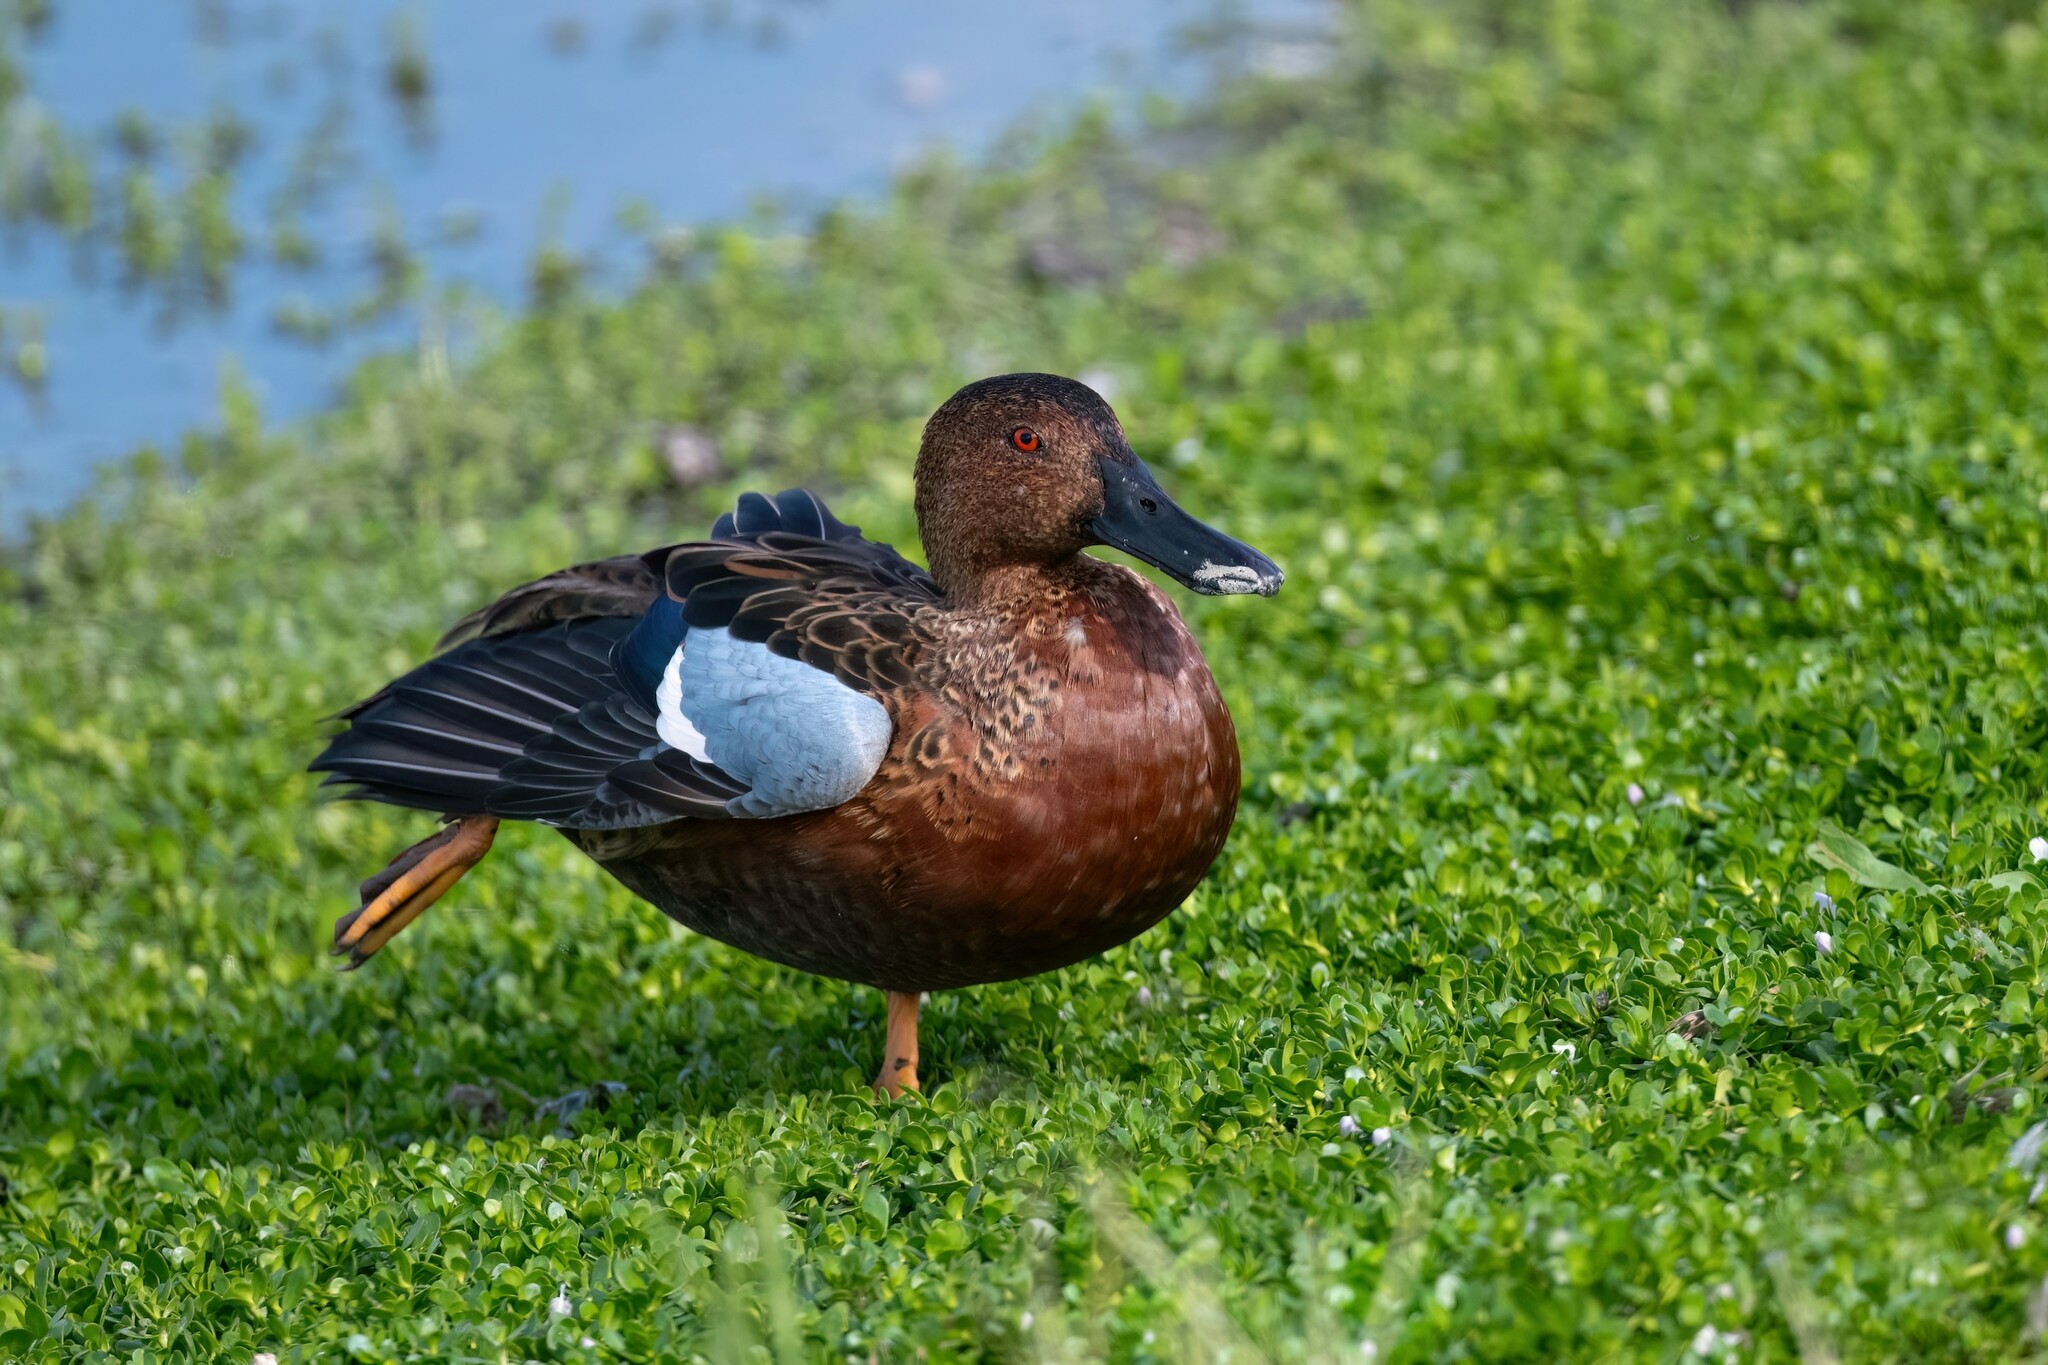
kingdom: Animalia
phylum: Chordata
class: Aves
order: Anseriformes
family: Anatidae
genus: Spatula
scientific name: Spatula cyanoptera
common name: Cinnamon teal
